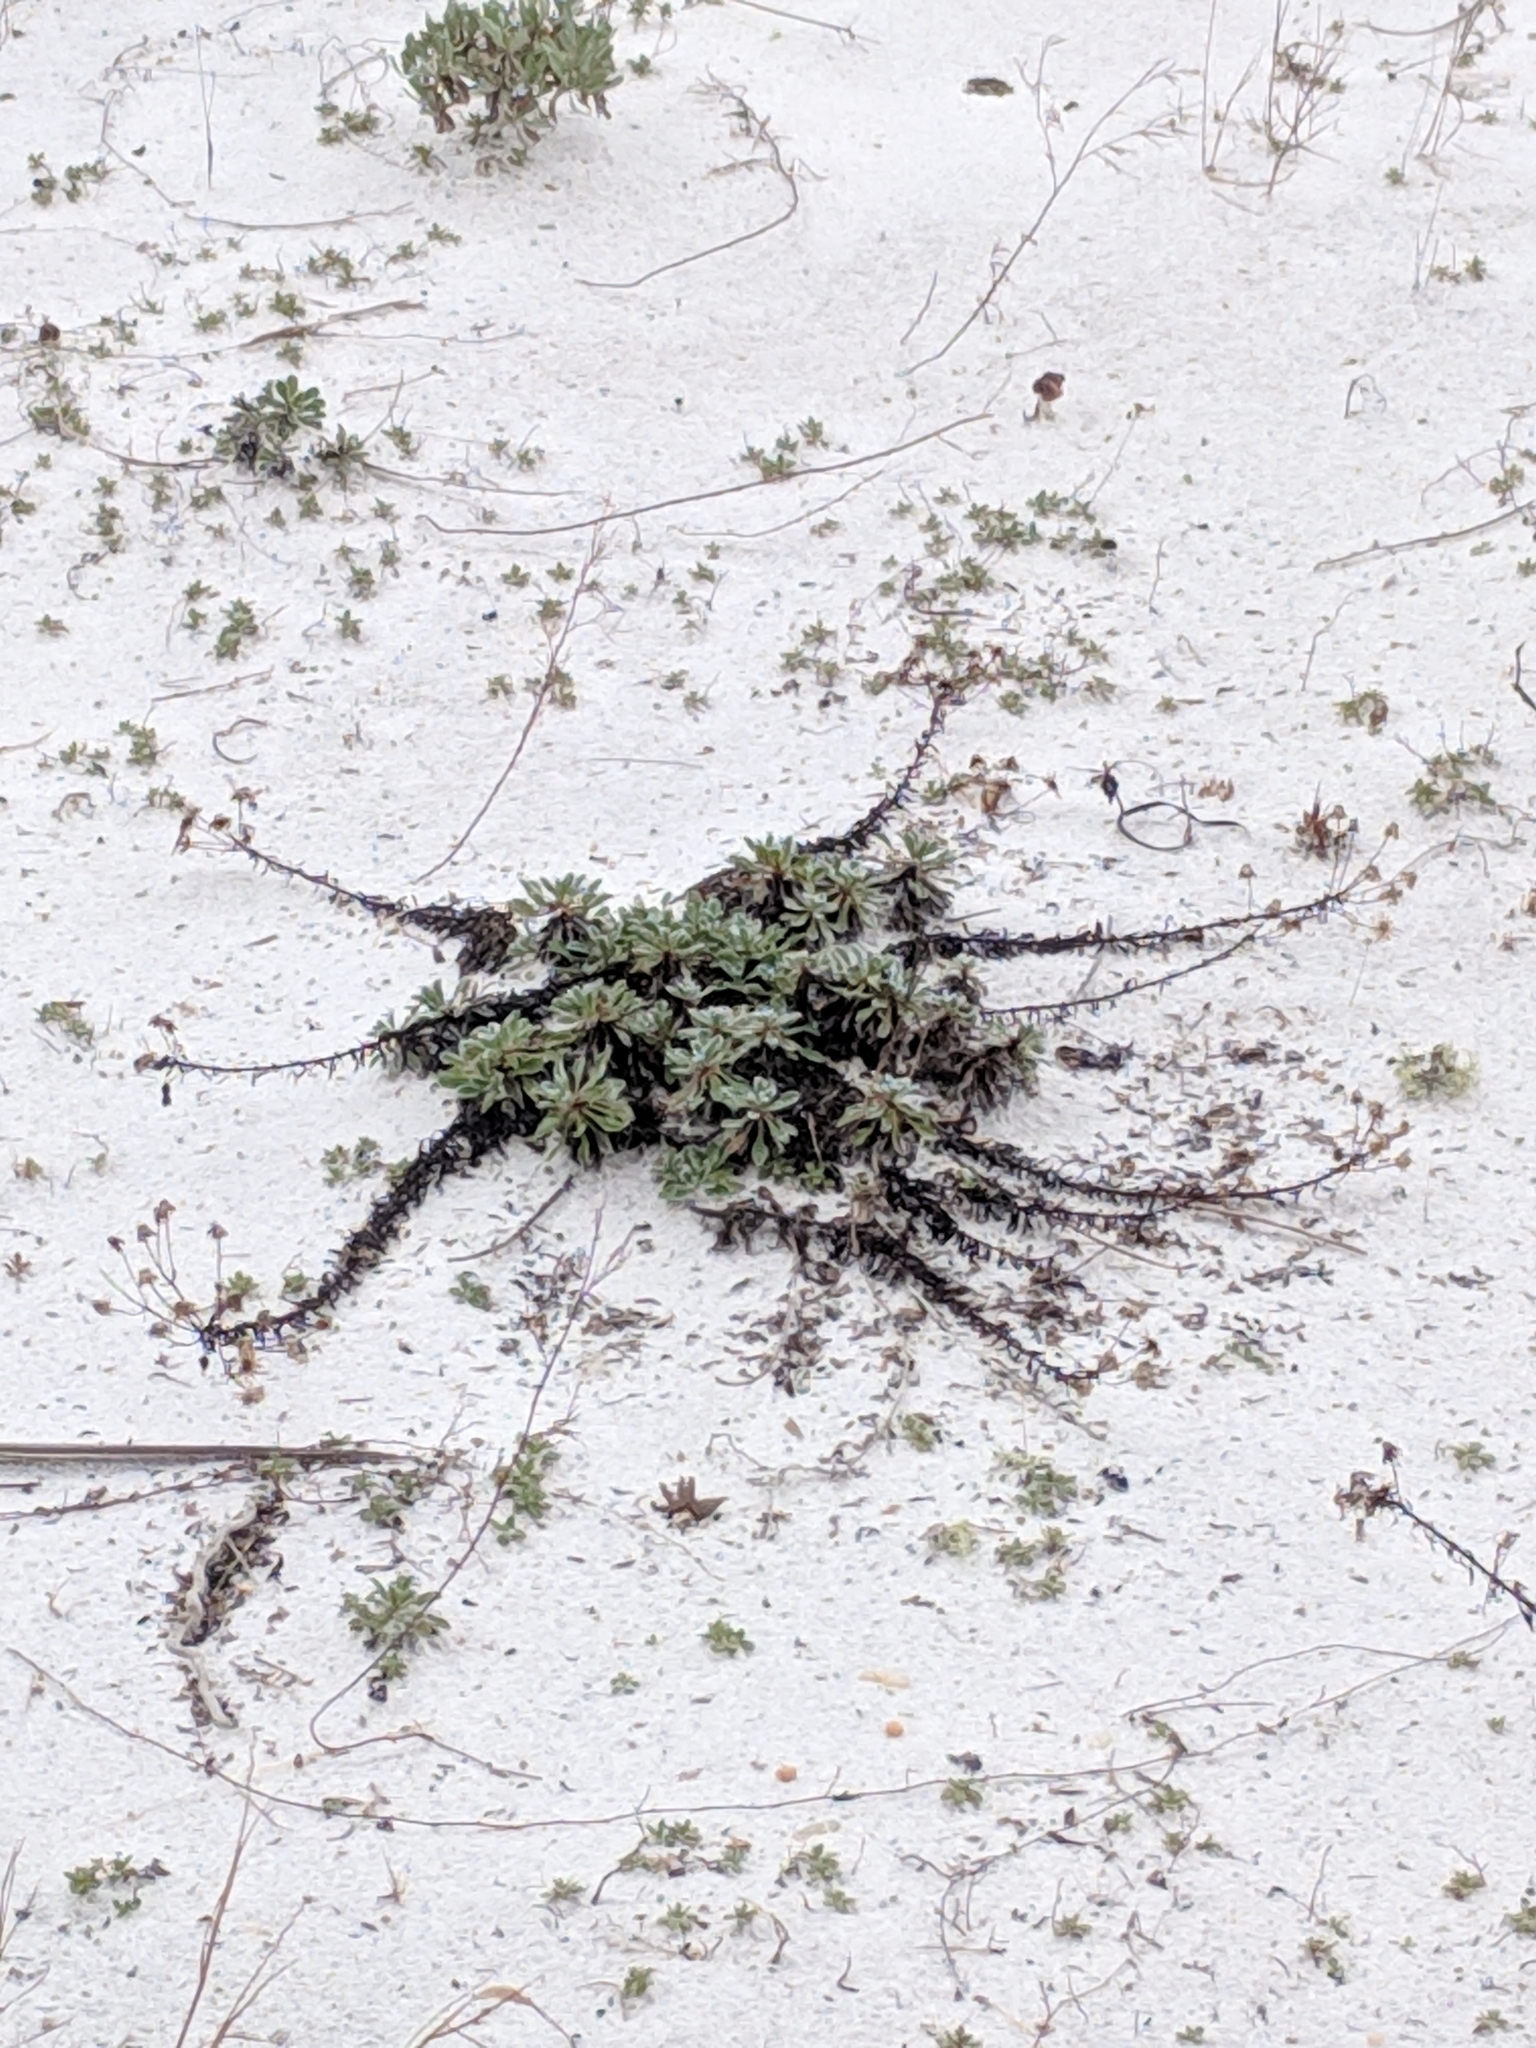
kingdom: Plantae
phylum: Tracheophyta
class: Magnoliopsida
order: Asterales
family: Asteraceae
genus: Chrysopsis
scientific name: Chrysopsis godfreyi
